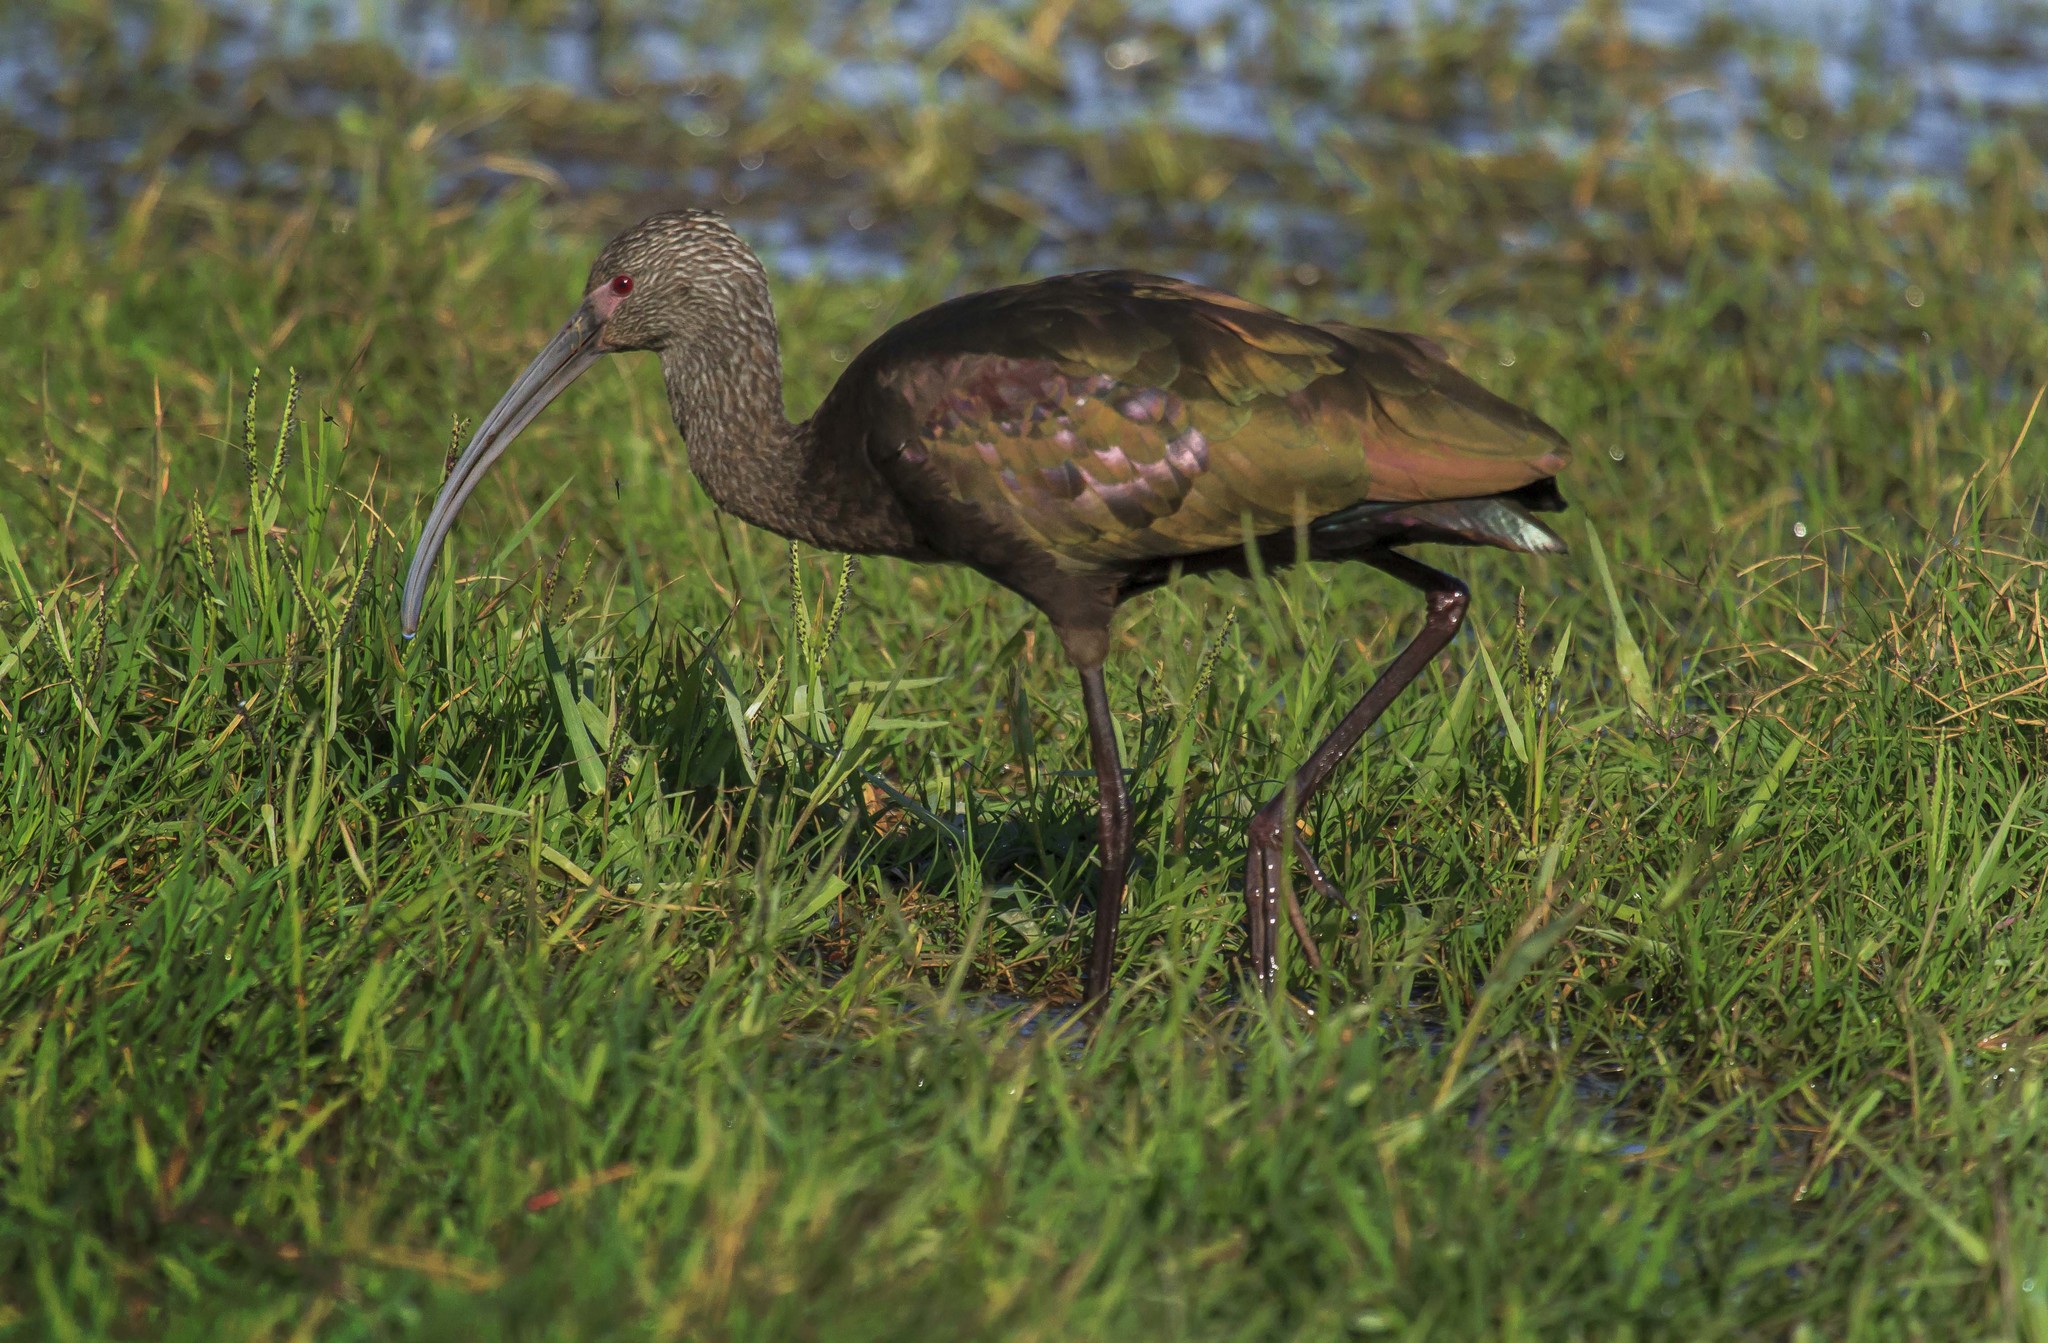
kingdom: Animalia
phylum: Chordata
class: Aves
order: Pelecaniformes
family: Threskiornithidae
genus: Plegadis
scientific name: Plegadis chihi
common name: White-faced ibis
